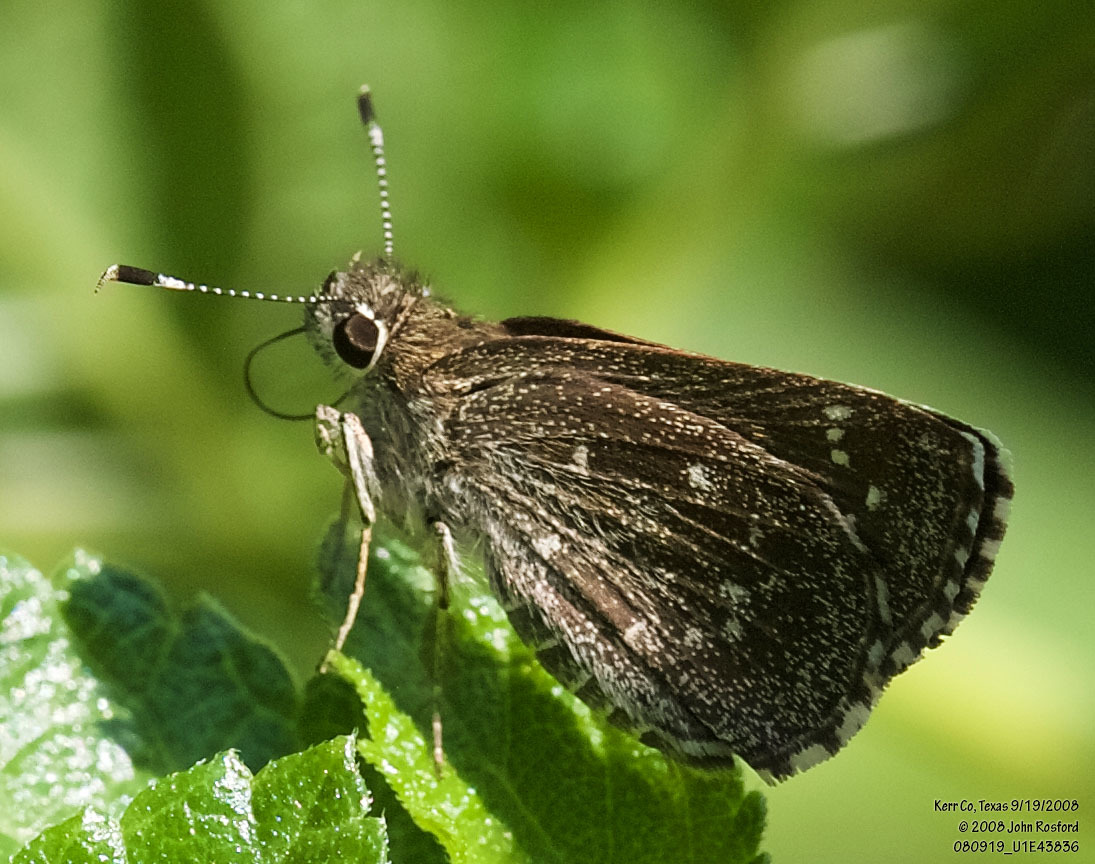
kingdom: Animalia
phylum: Arthropoda
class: Insecta
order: Lepidoptera
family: Hesperiidae
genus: Mastor
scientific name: Mastor celia
